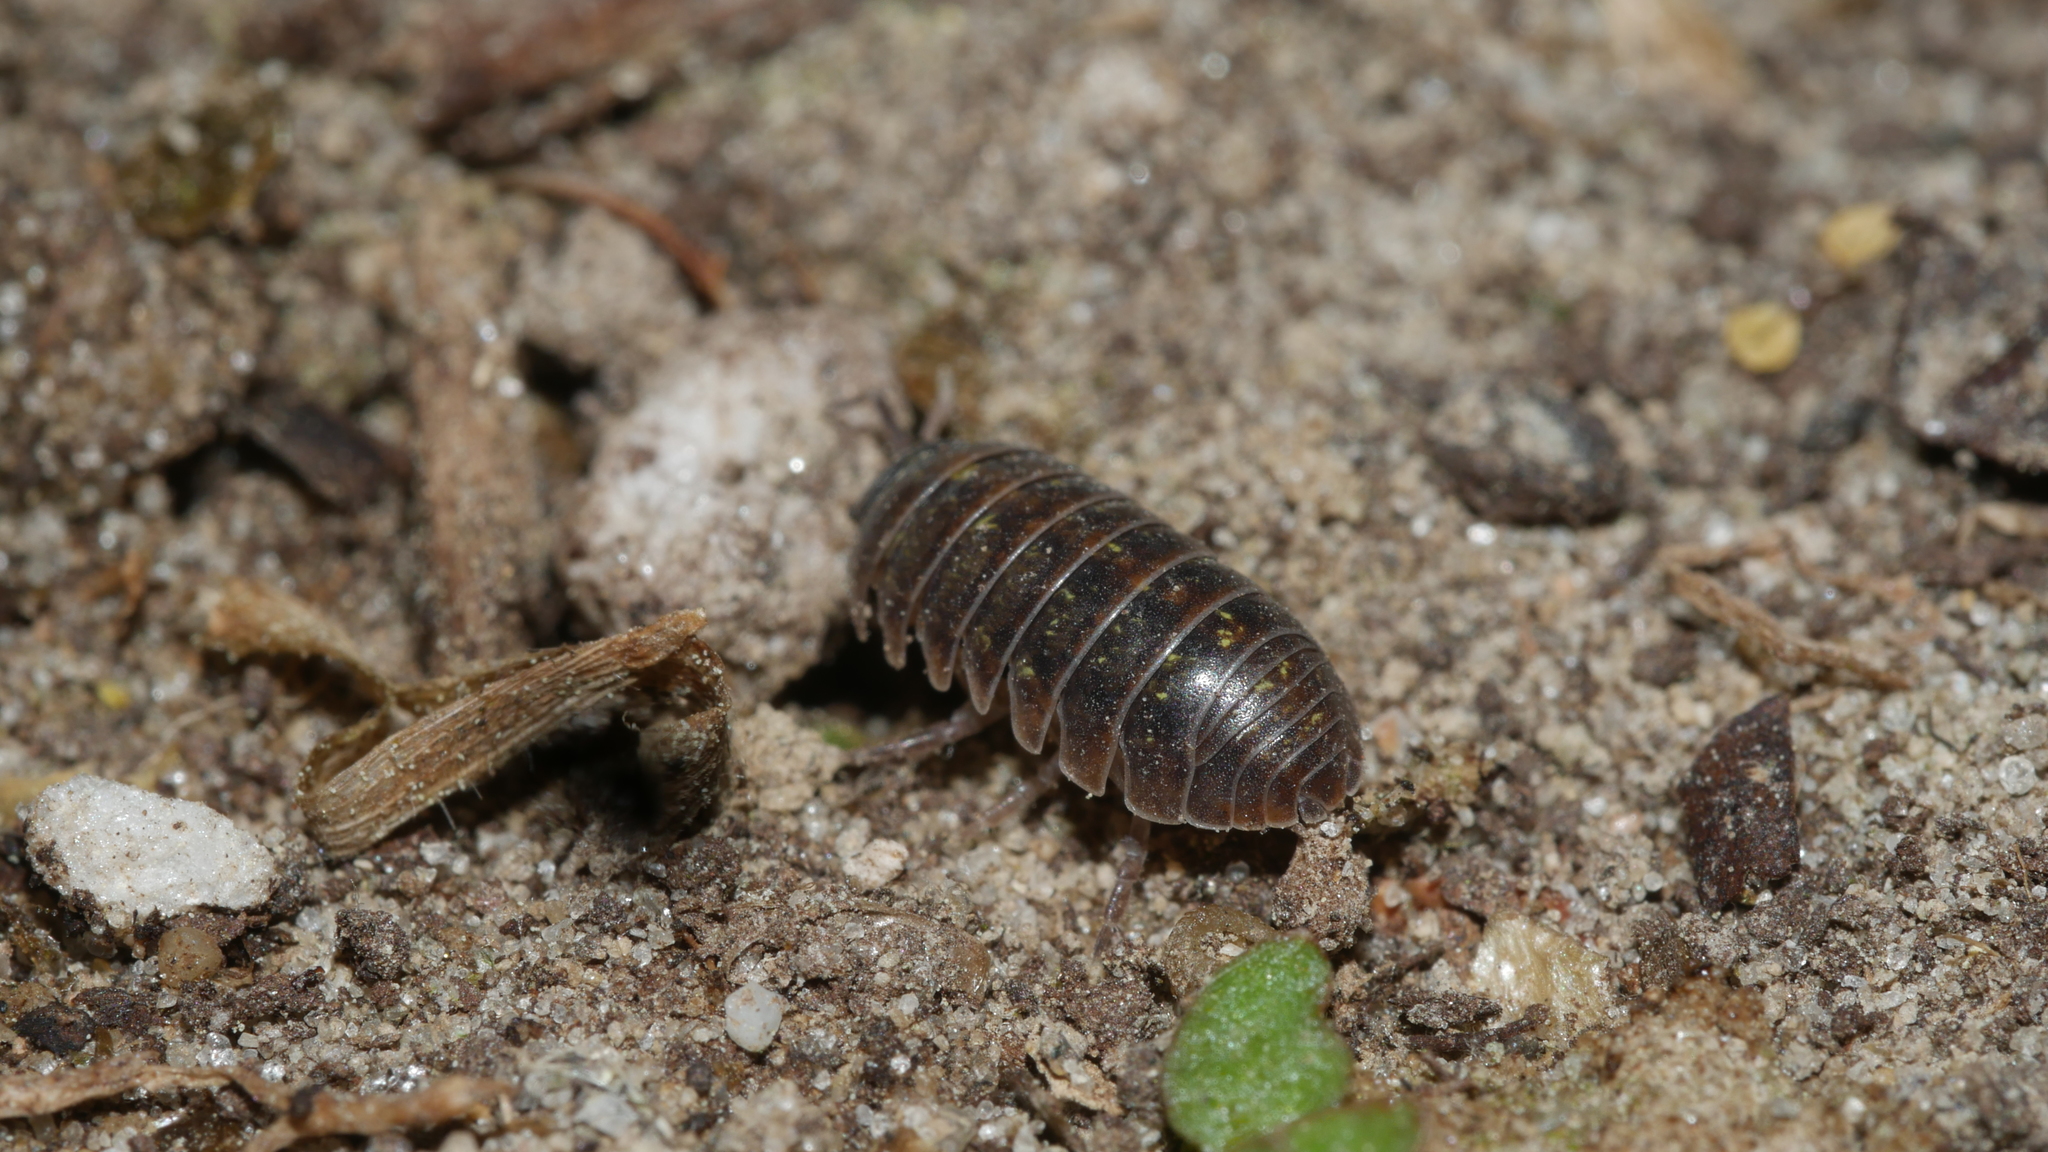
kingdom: Animalia
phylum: Arthropoda
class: Malacostraca
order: Isopoda
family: Armadillidiidae
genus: Armadillidium
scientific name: Armadillidium vulgare
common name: Common pill woodlouse
